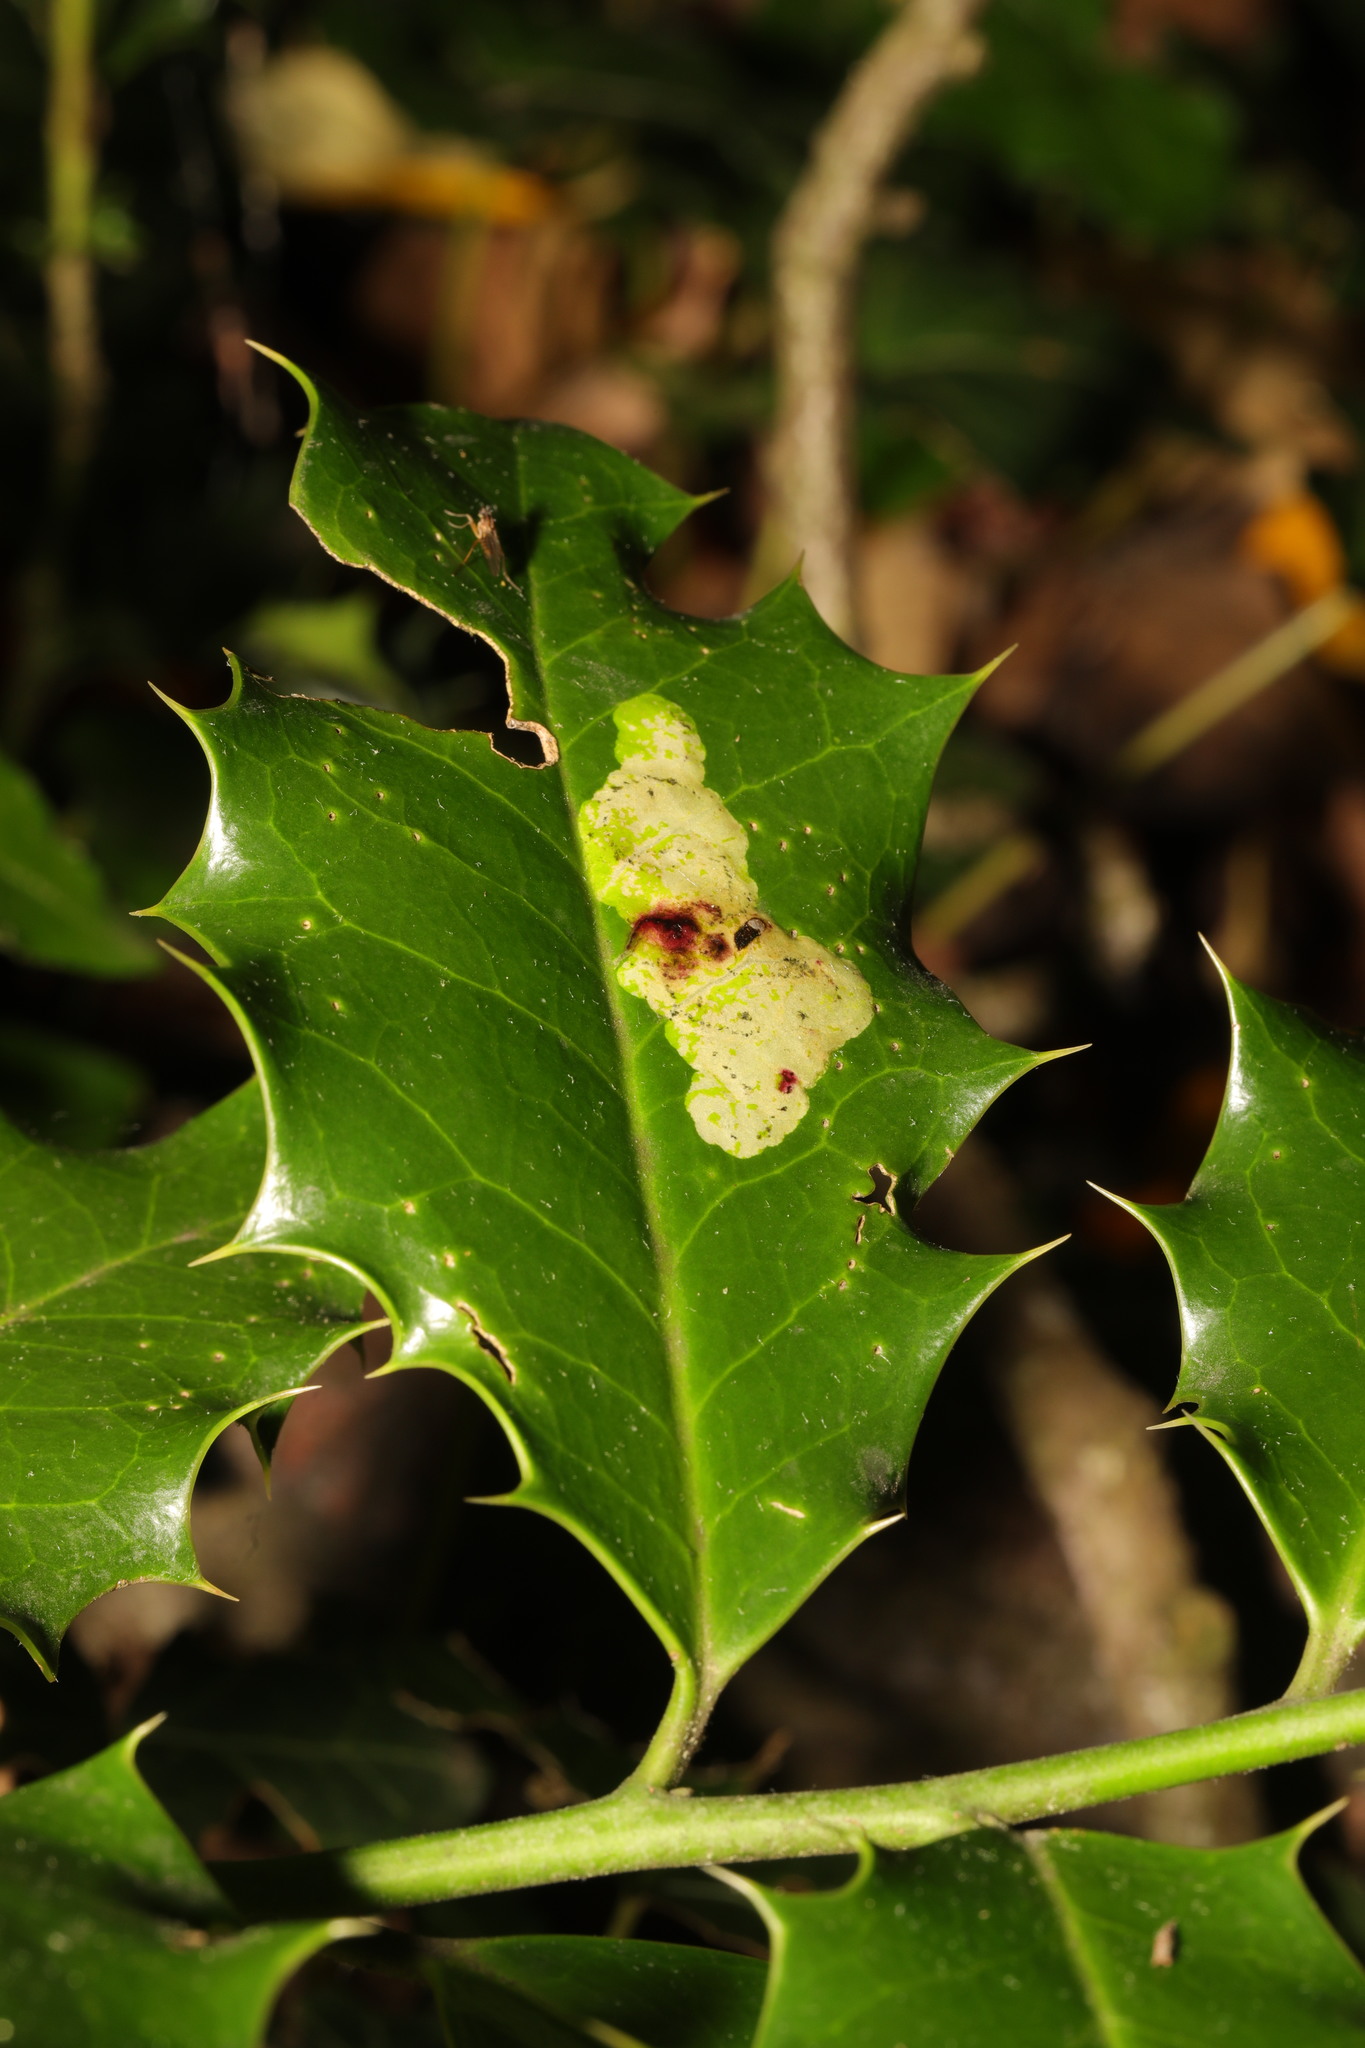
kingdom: Animalia
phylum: Arthropoda
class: Insecta
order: Diptera
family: Agromyzidae
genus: Phytomyza
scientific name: Phytomyza ilicis
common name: Holly leafminer
